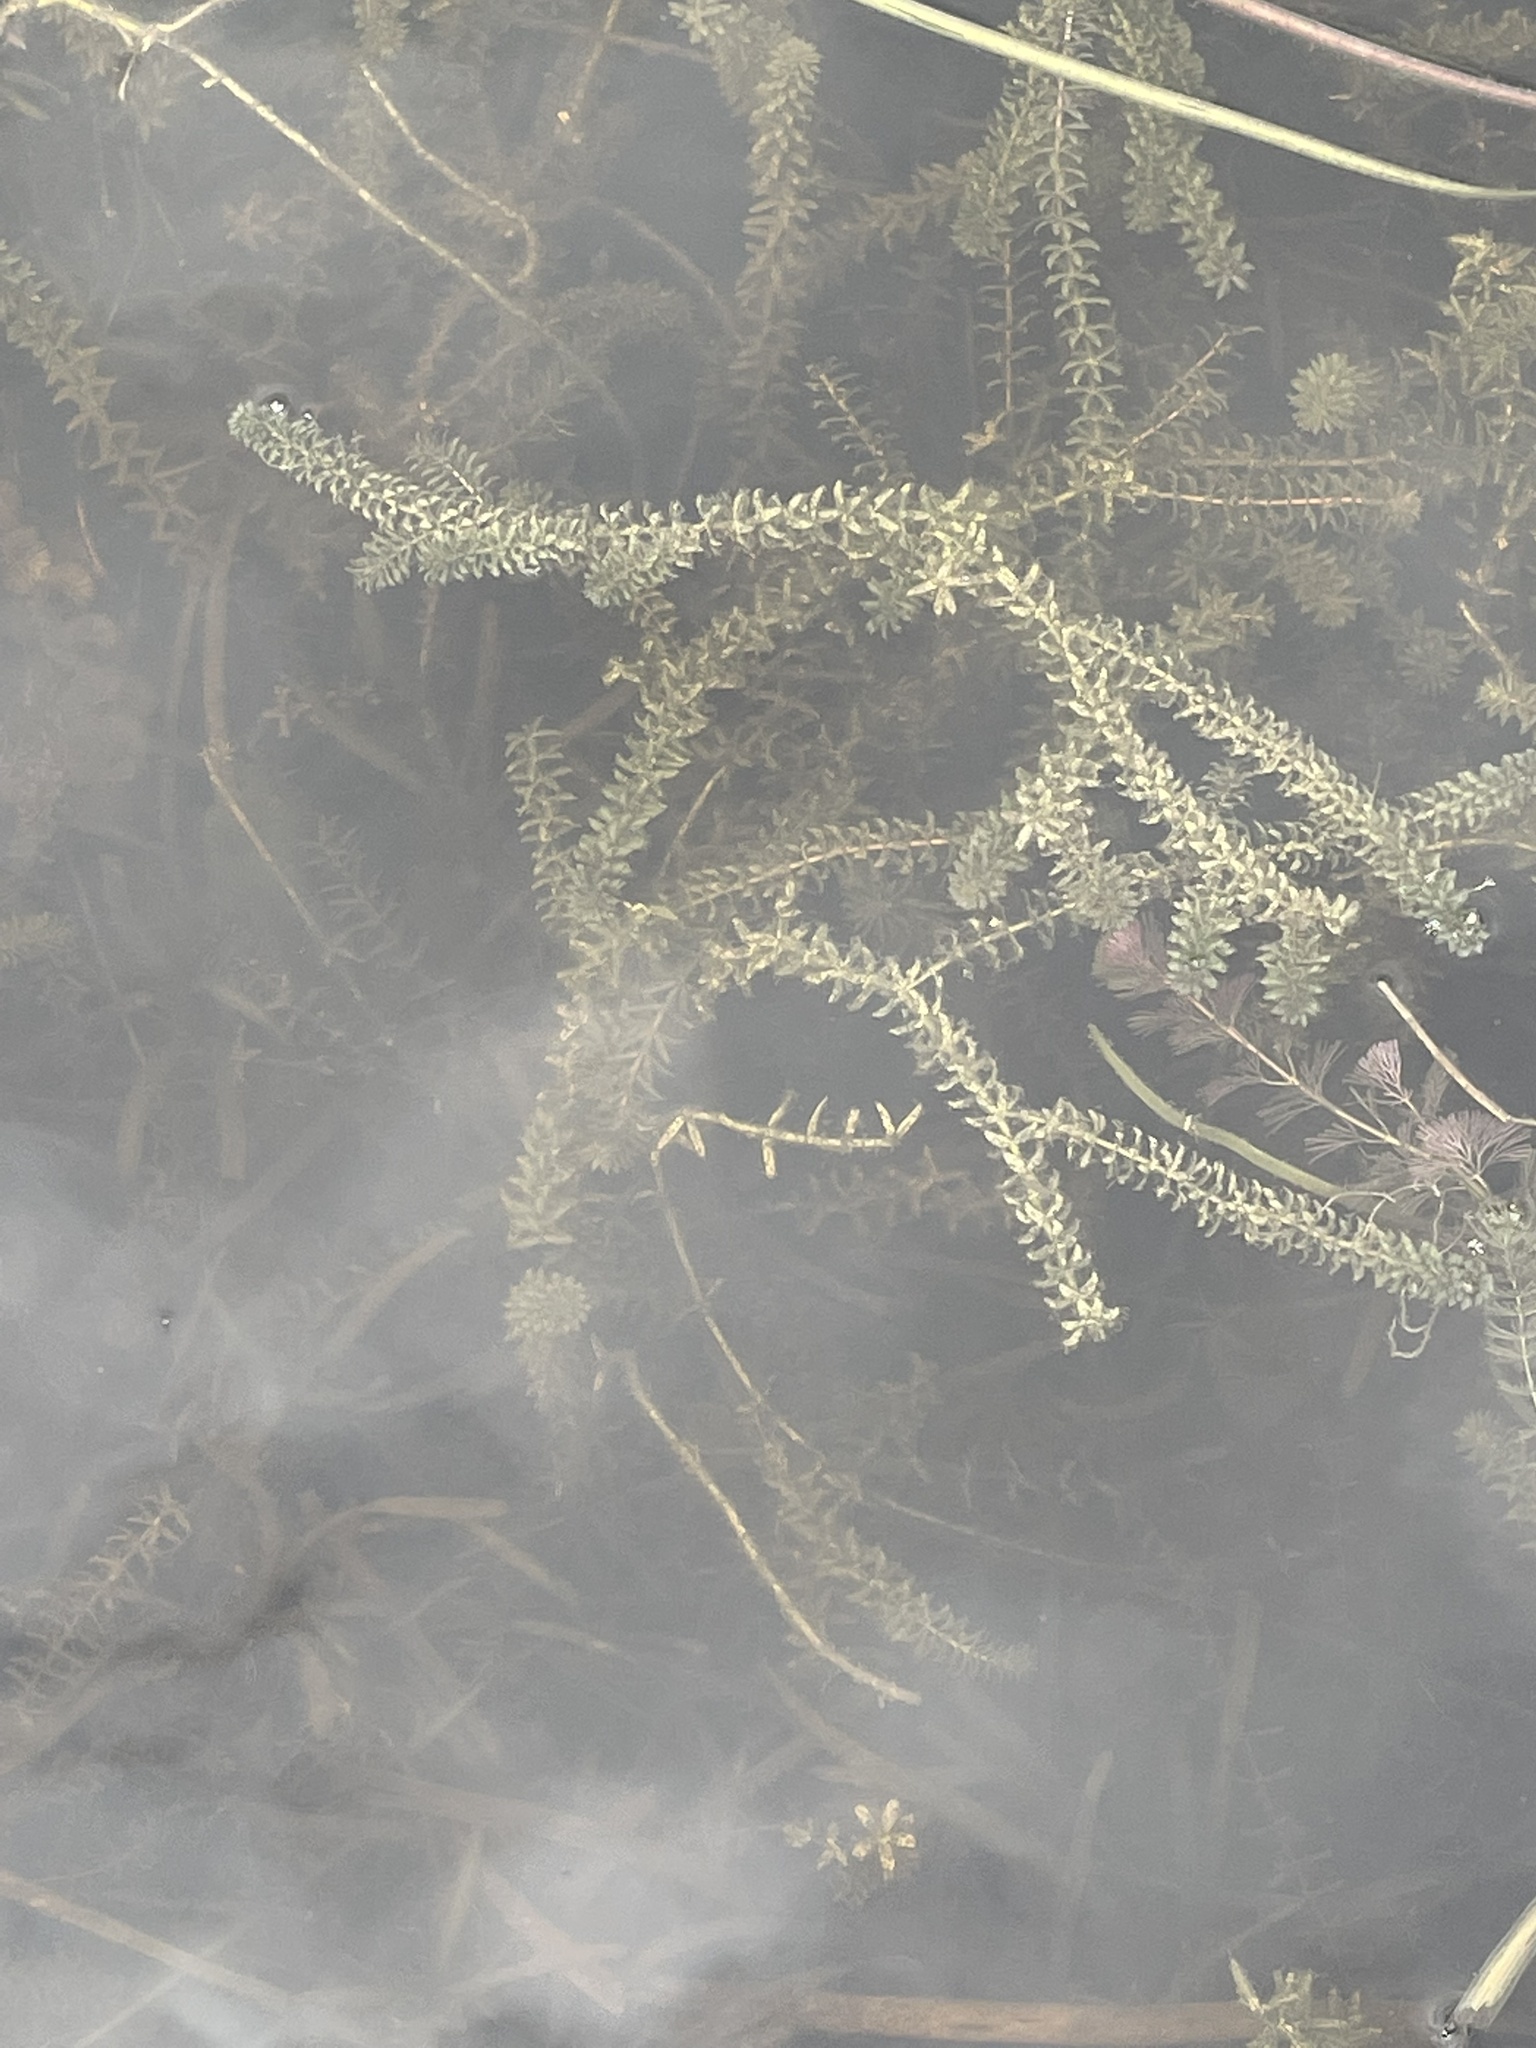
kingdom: Plantae
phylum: Tracheophyta
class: Liliopsida
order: Alismatales
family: Hydrocharitaceae
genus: Hydrilla
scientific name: Hydrilla verticillata
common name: Florida-elodea
